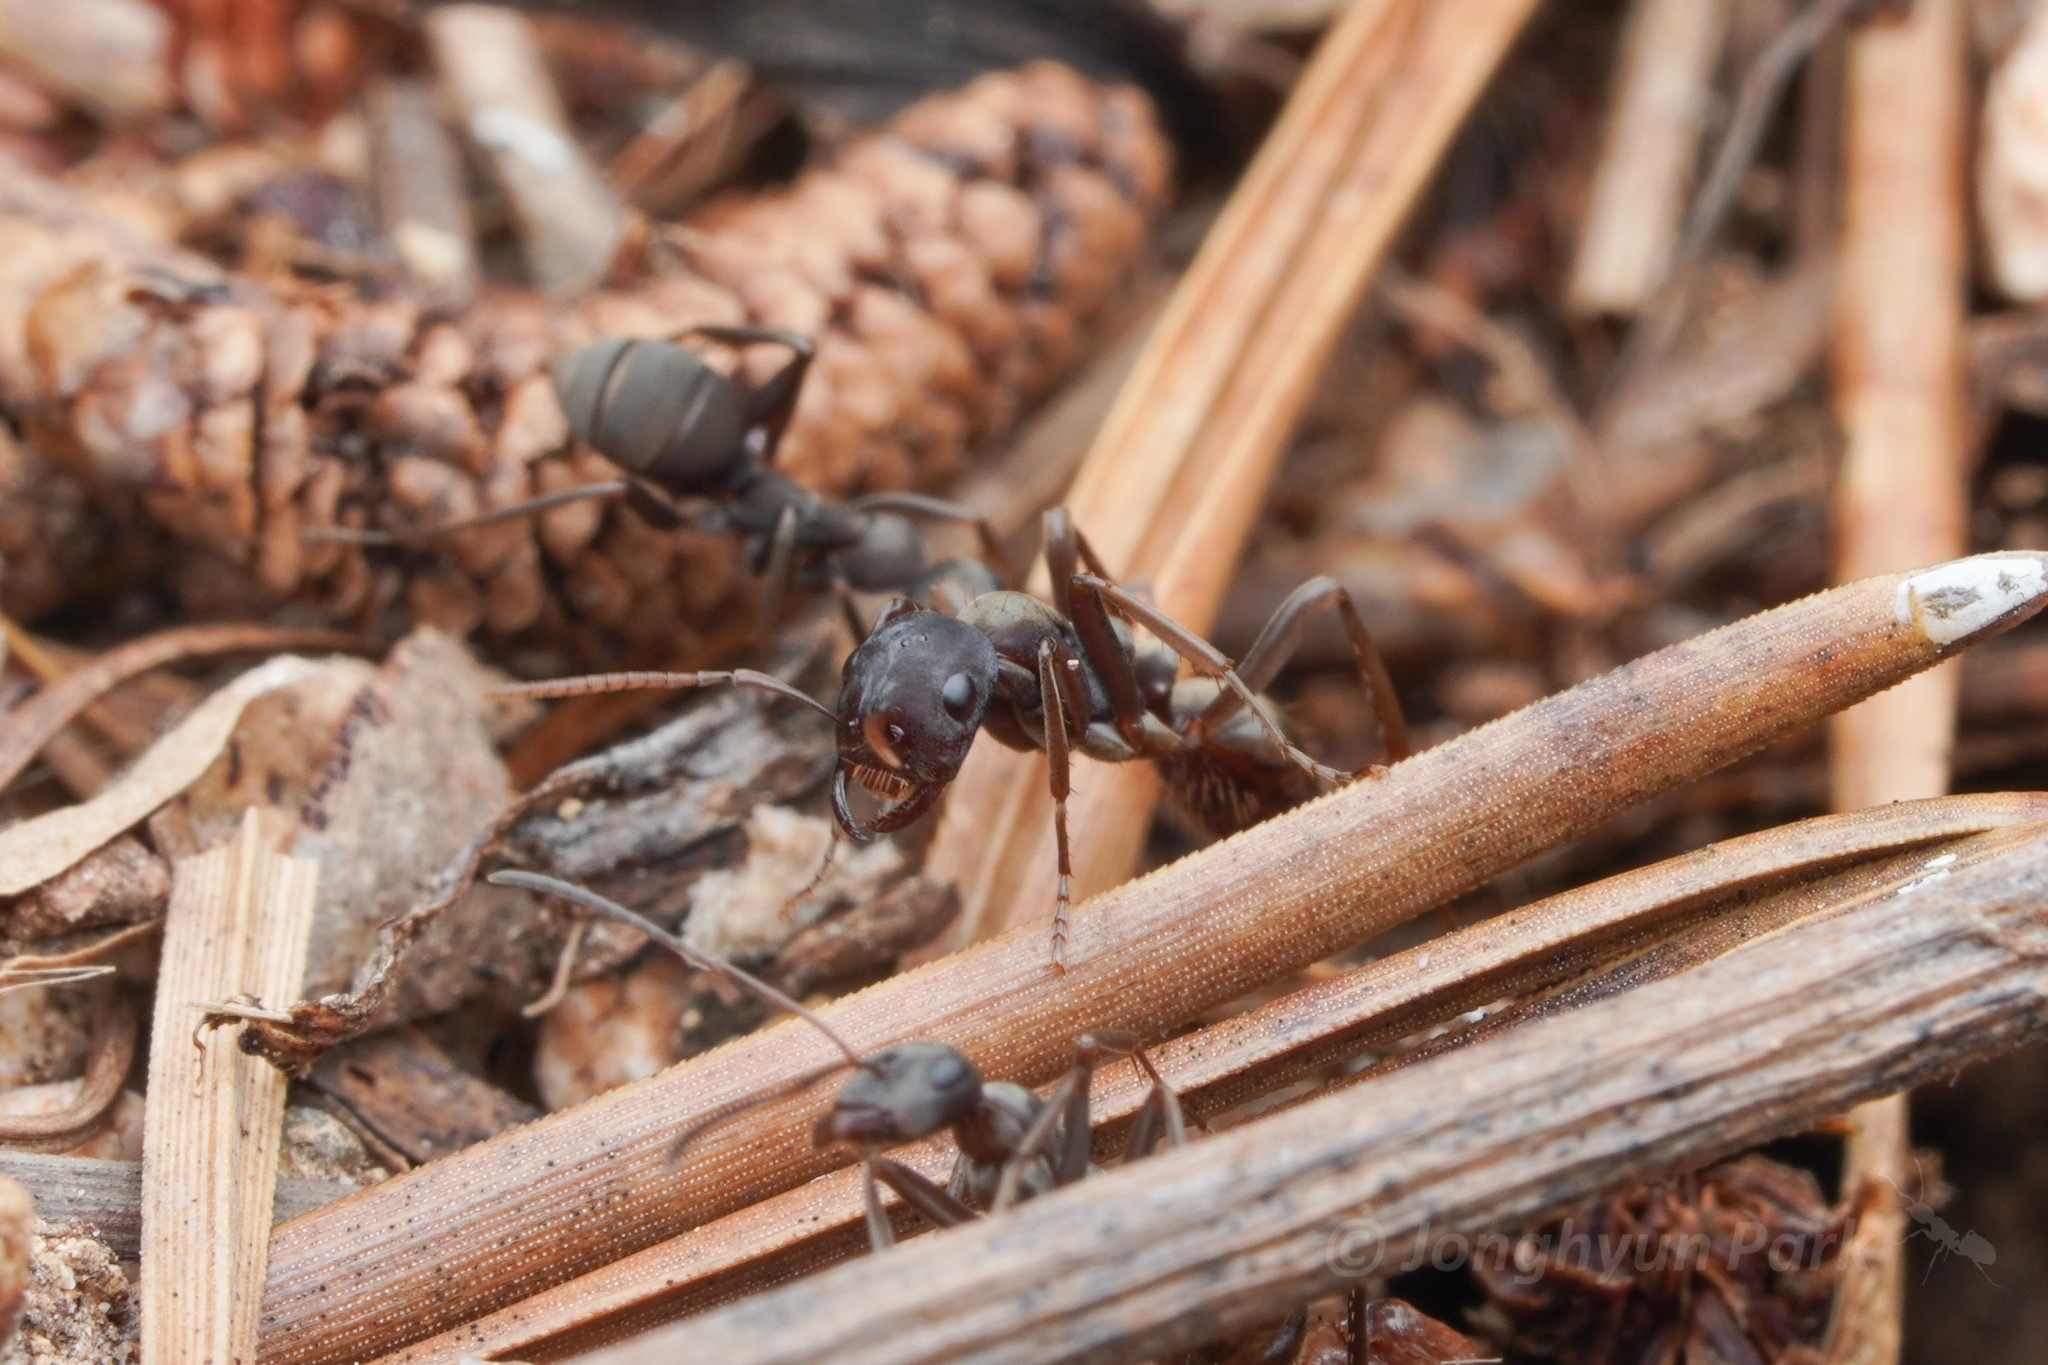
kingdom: Animalia
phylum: Arthropoda
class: Insecta
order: Hymenoptera
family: Formicidae
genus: Polyergus
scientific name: Polyergus samurai
